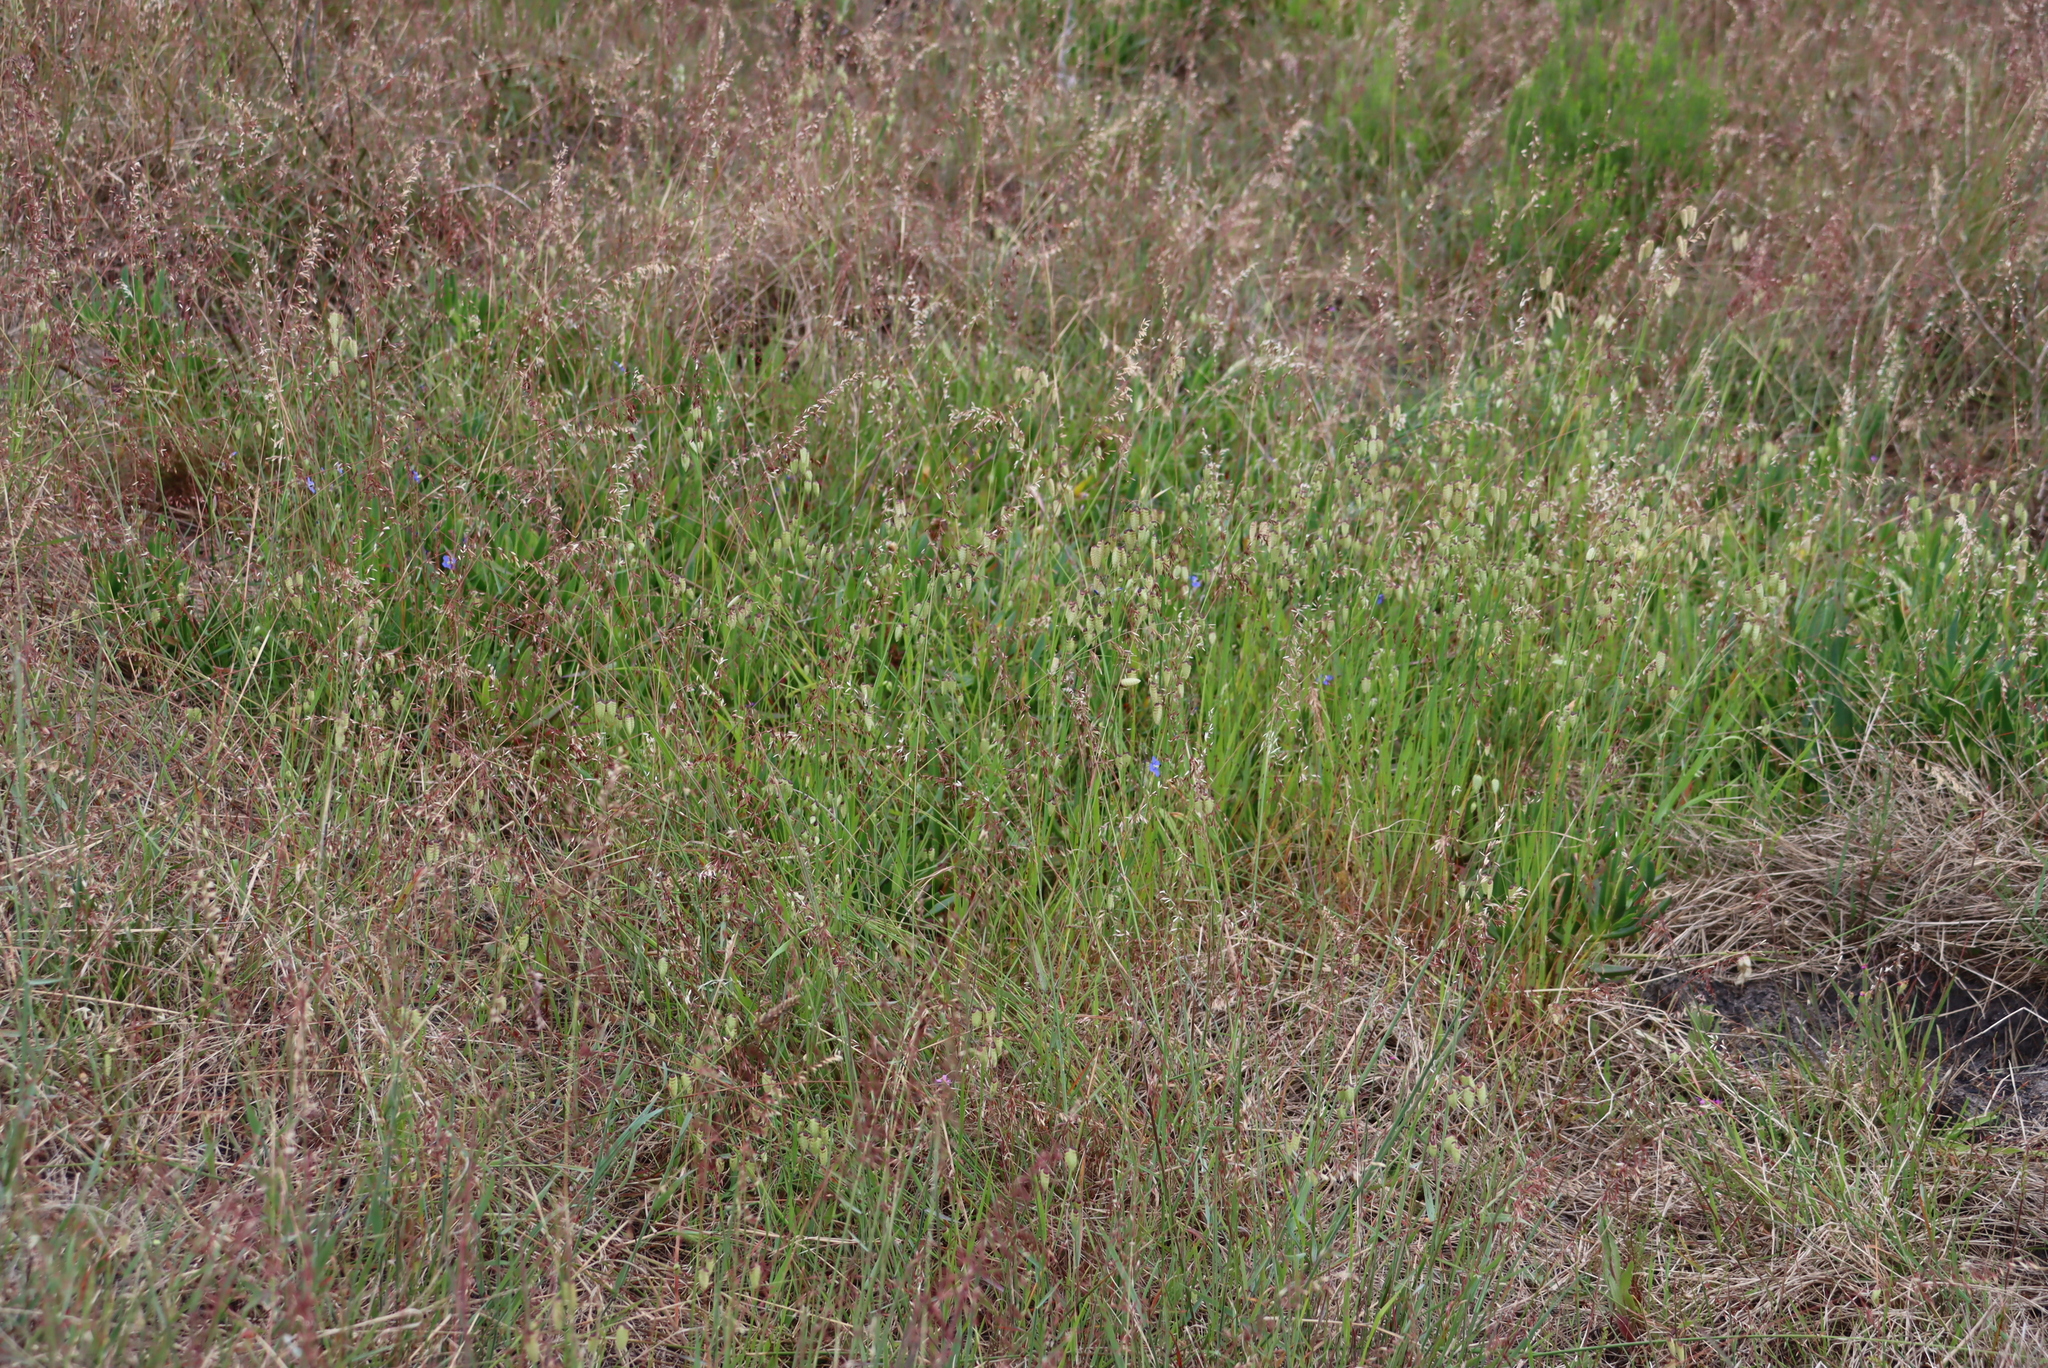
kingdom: Plantae
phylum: Tracheophyta
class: Liliopsida
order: Poales
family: Poaceae
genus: Briza
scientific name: Briza maxima
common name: Big quakinggrass
